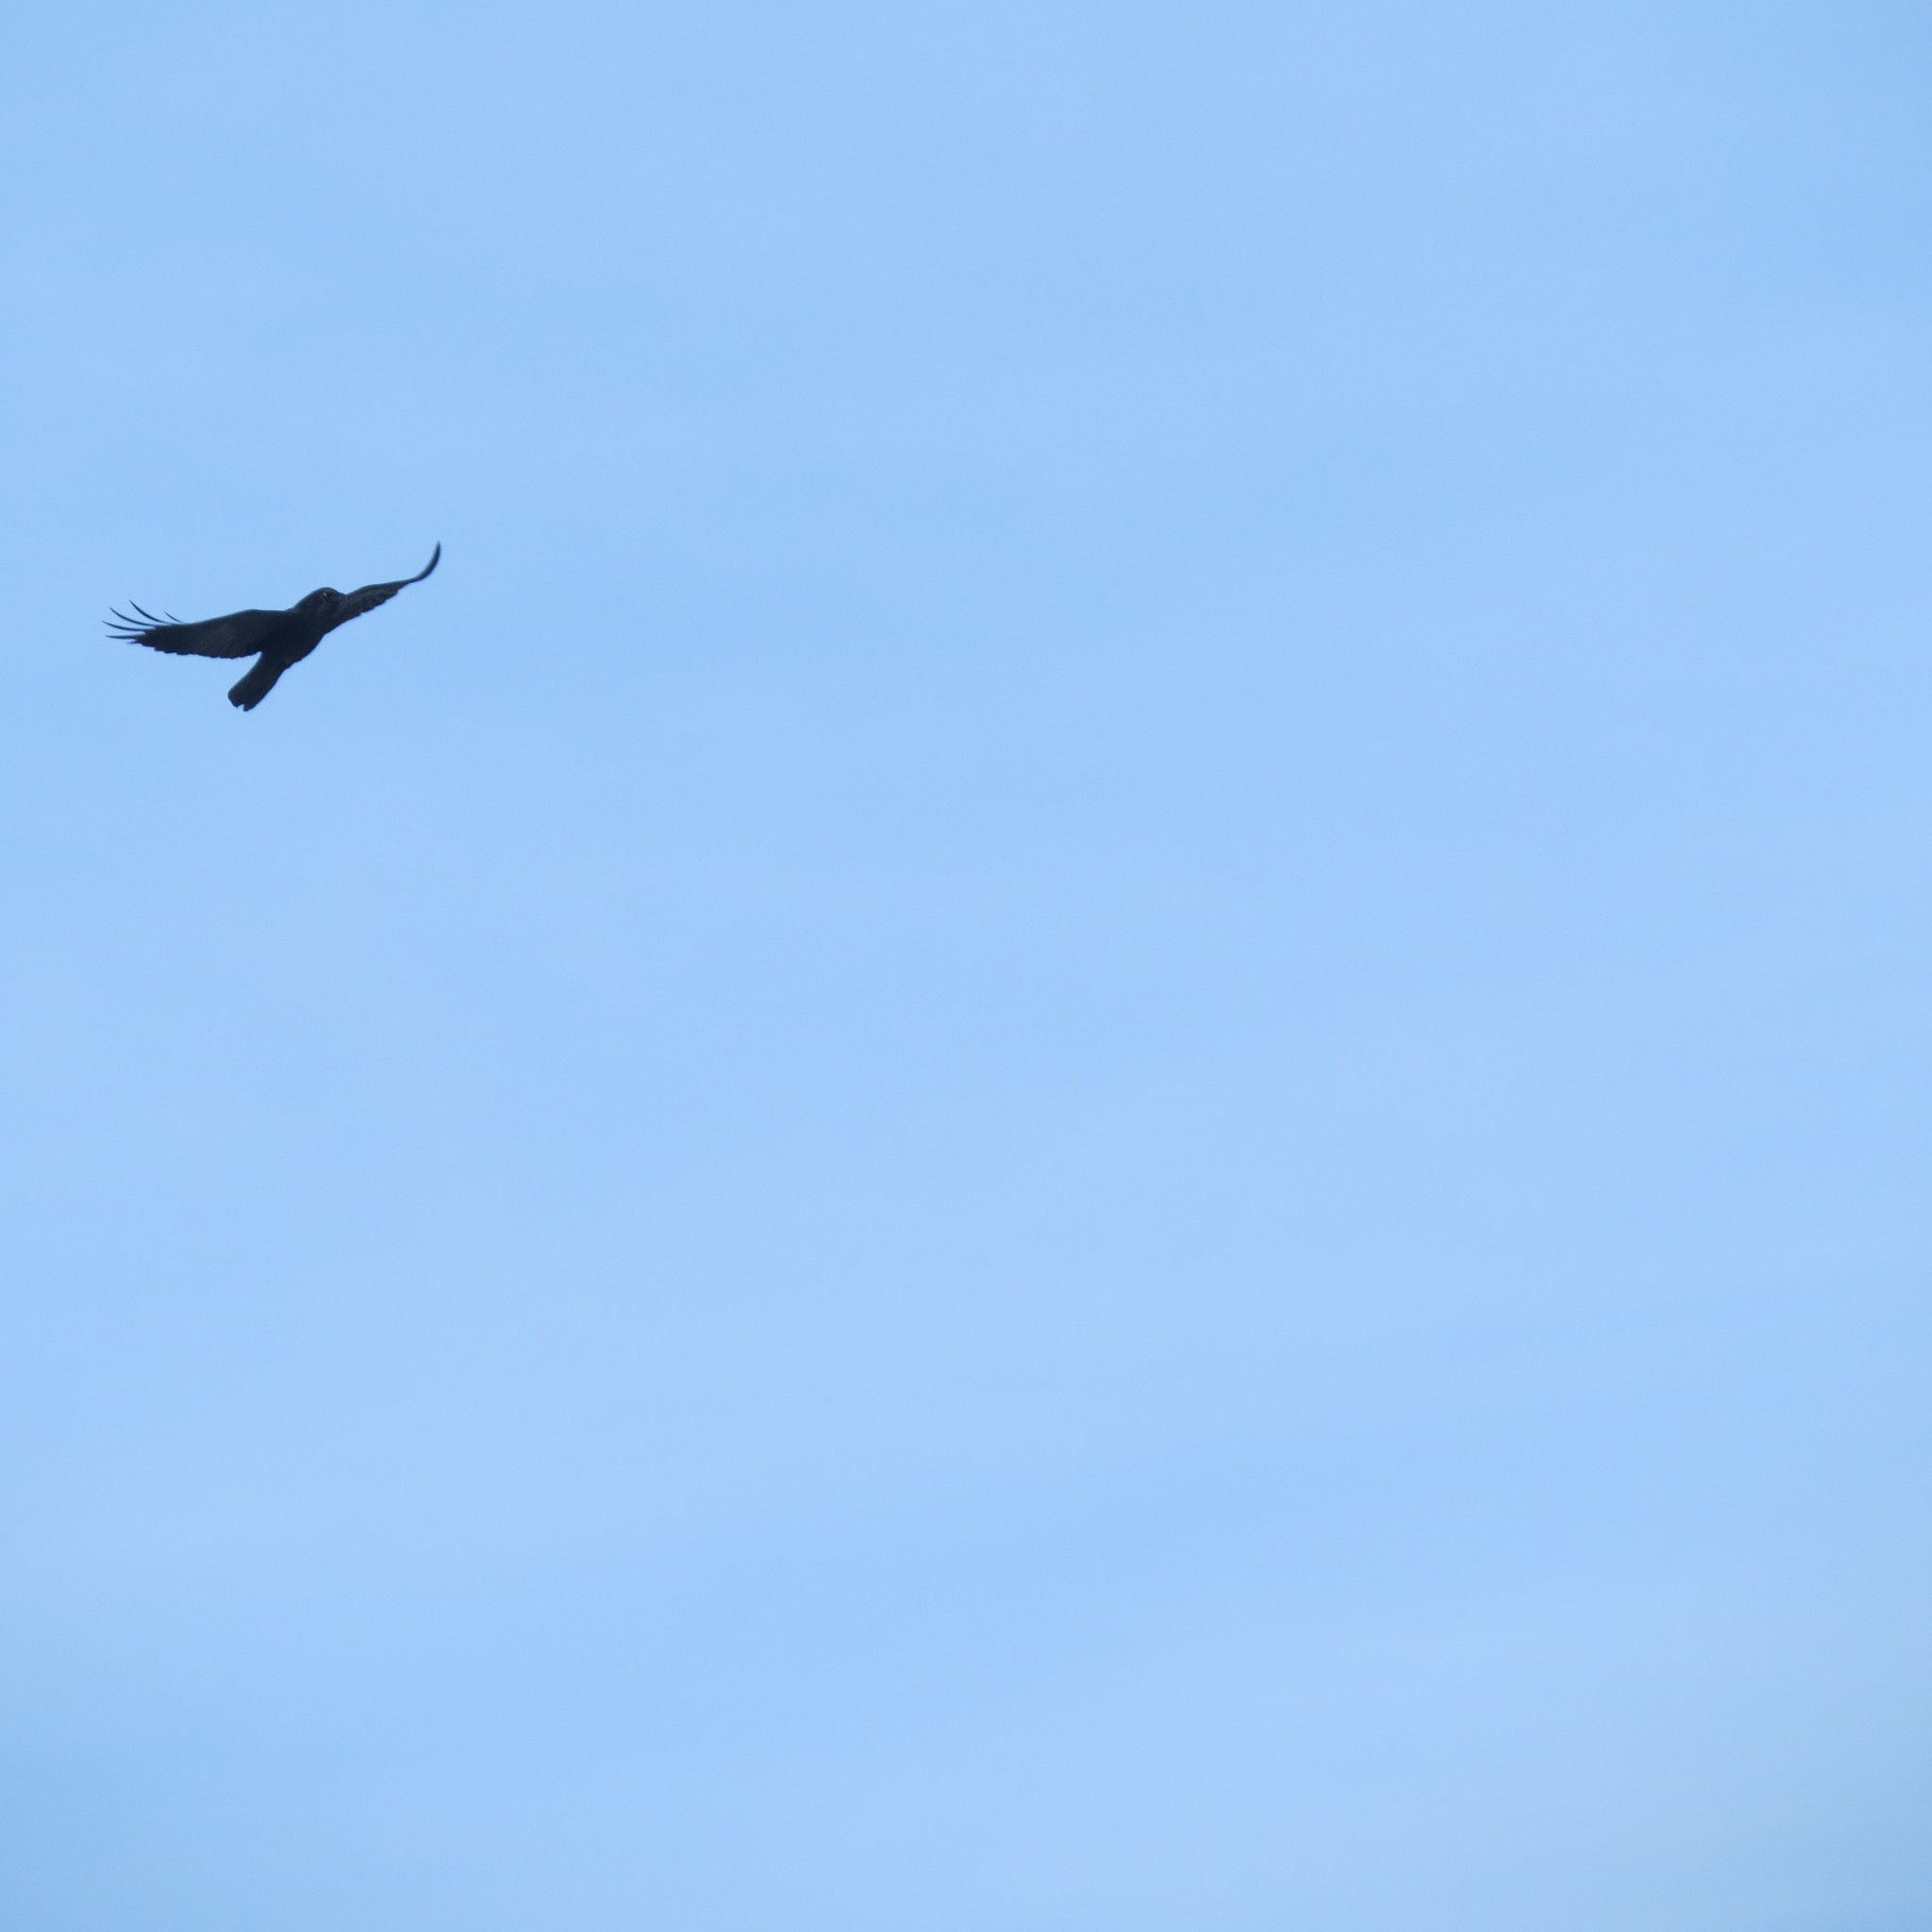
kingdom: Animalia
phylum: Chordata
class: Aves
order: Passeriformes
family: Corvidae
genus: Corvus
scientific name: Corvus corax
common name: Common raven
